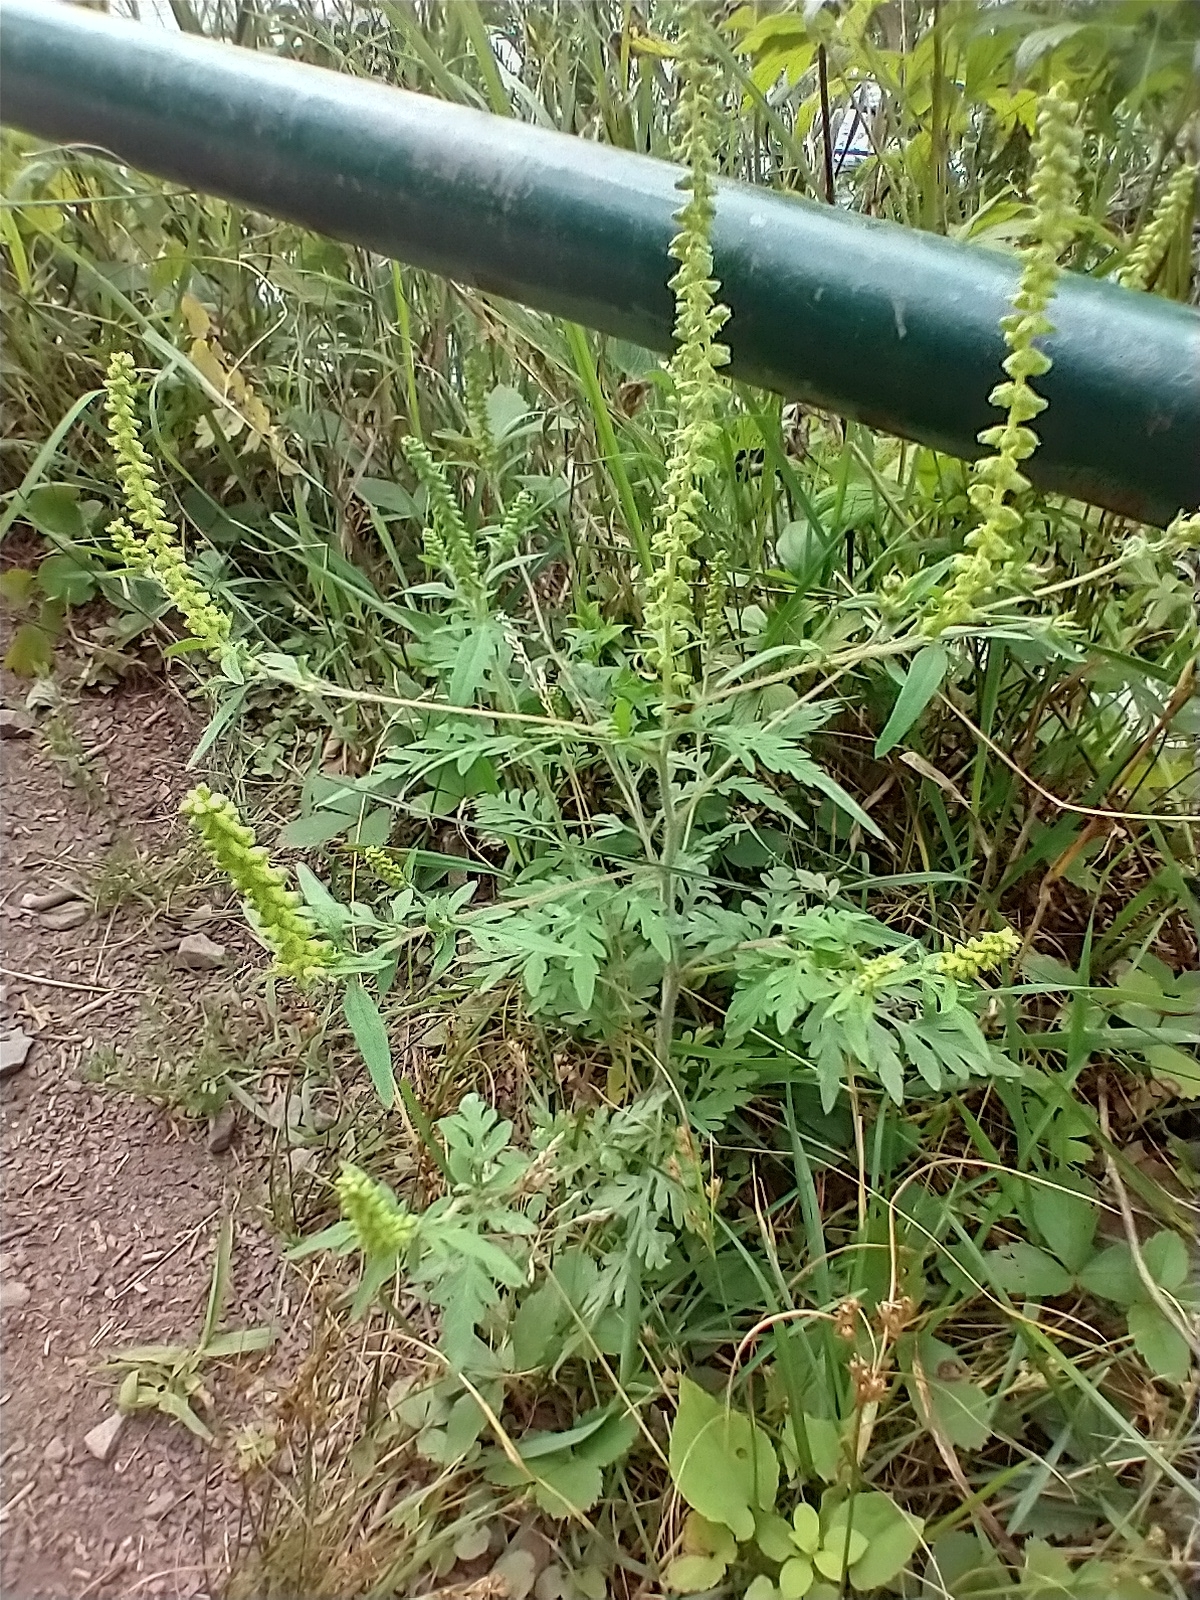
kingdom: Plantae
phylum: Tracheophyta
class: Magnoliopsida
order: Asterales
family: Asteraceae
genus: Ambrosia
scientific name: Ambrosia artemisiifolia
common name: Annual ragweed
